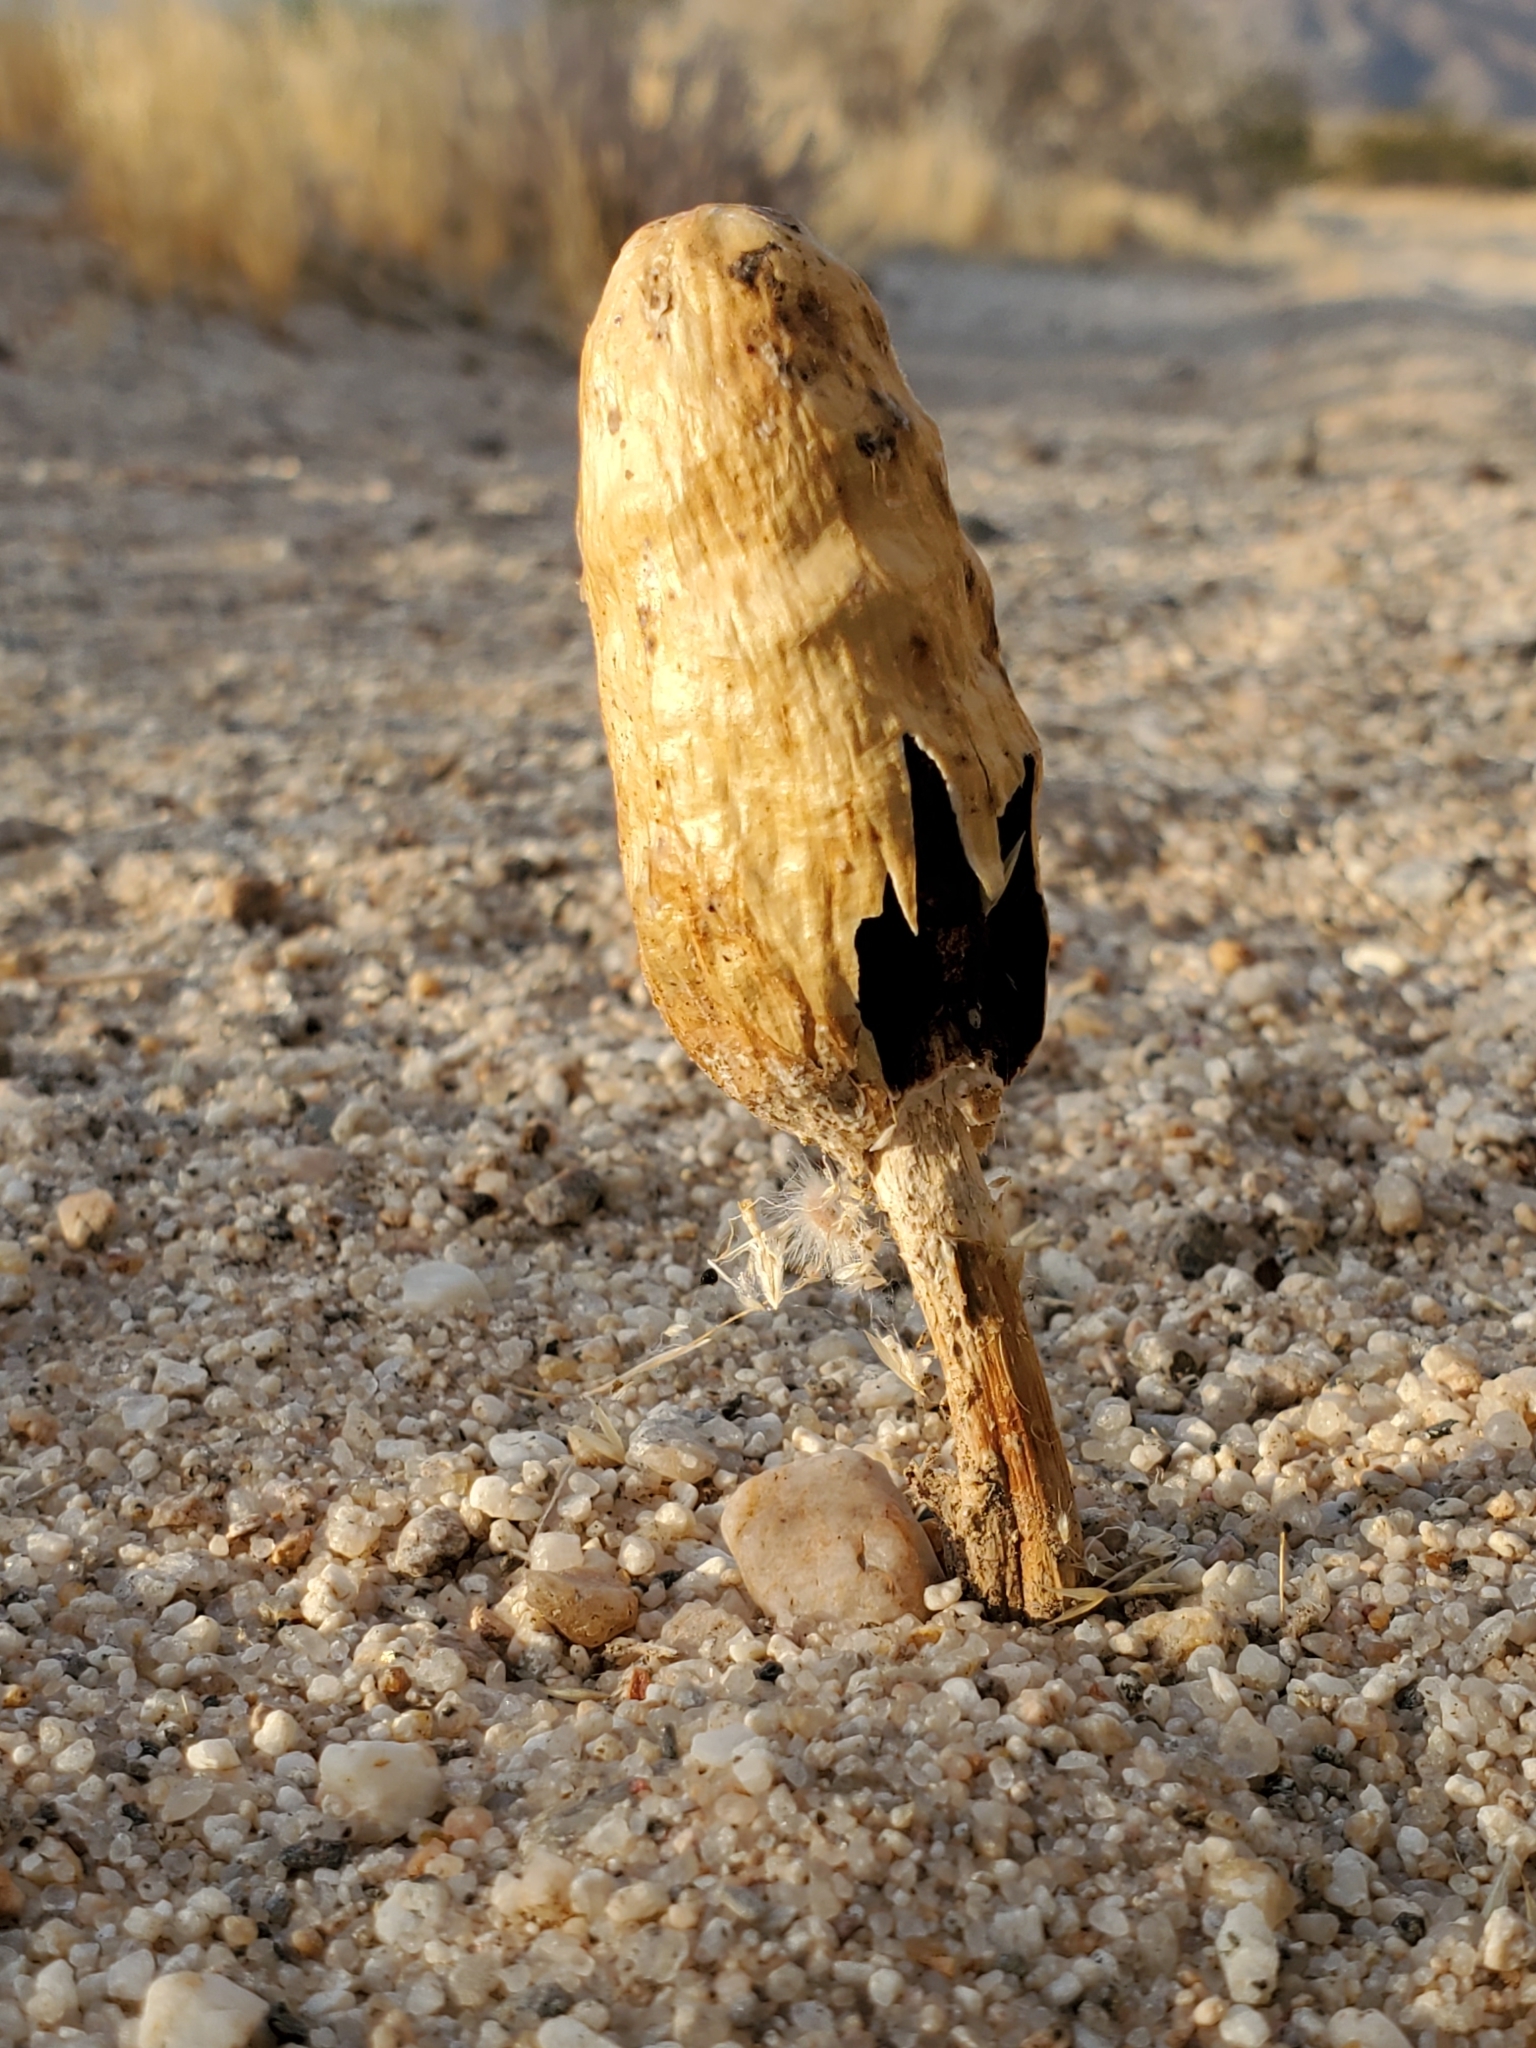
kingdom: Fungi
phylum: Basidiomycota
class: Agaricomycetes
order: Agaricales
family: Agaricaceae
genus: Podaxis
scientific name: Podaxis pistillaris
